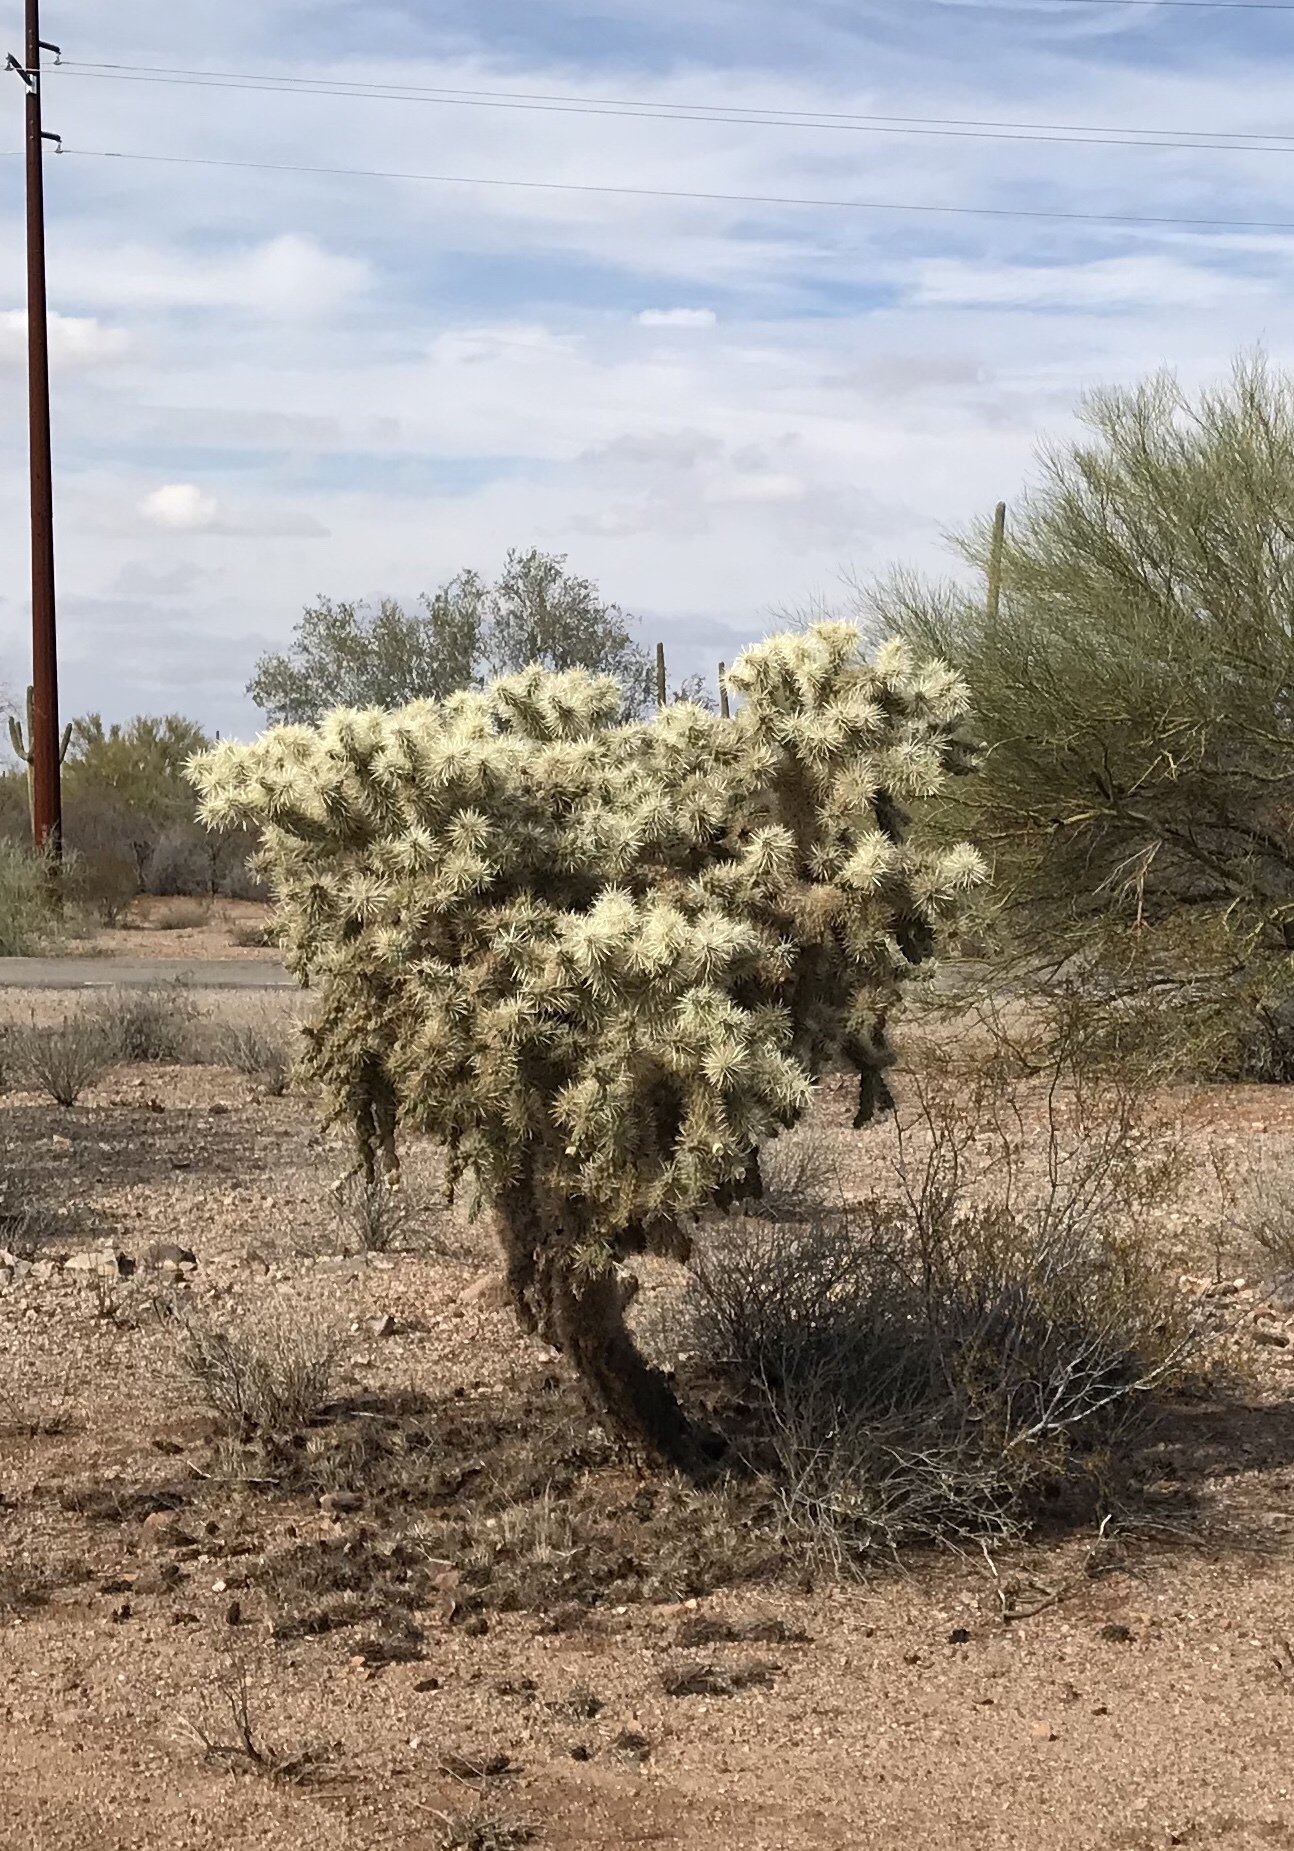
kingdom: Plantae
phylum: Tracheophyta
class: Magnoliopsida
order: Caryophyllales
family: Cactaceae
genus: Cylindropuntia
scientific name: Cylindropuntia fulgida
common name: Jumping cholla
